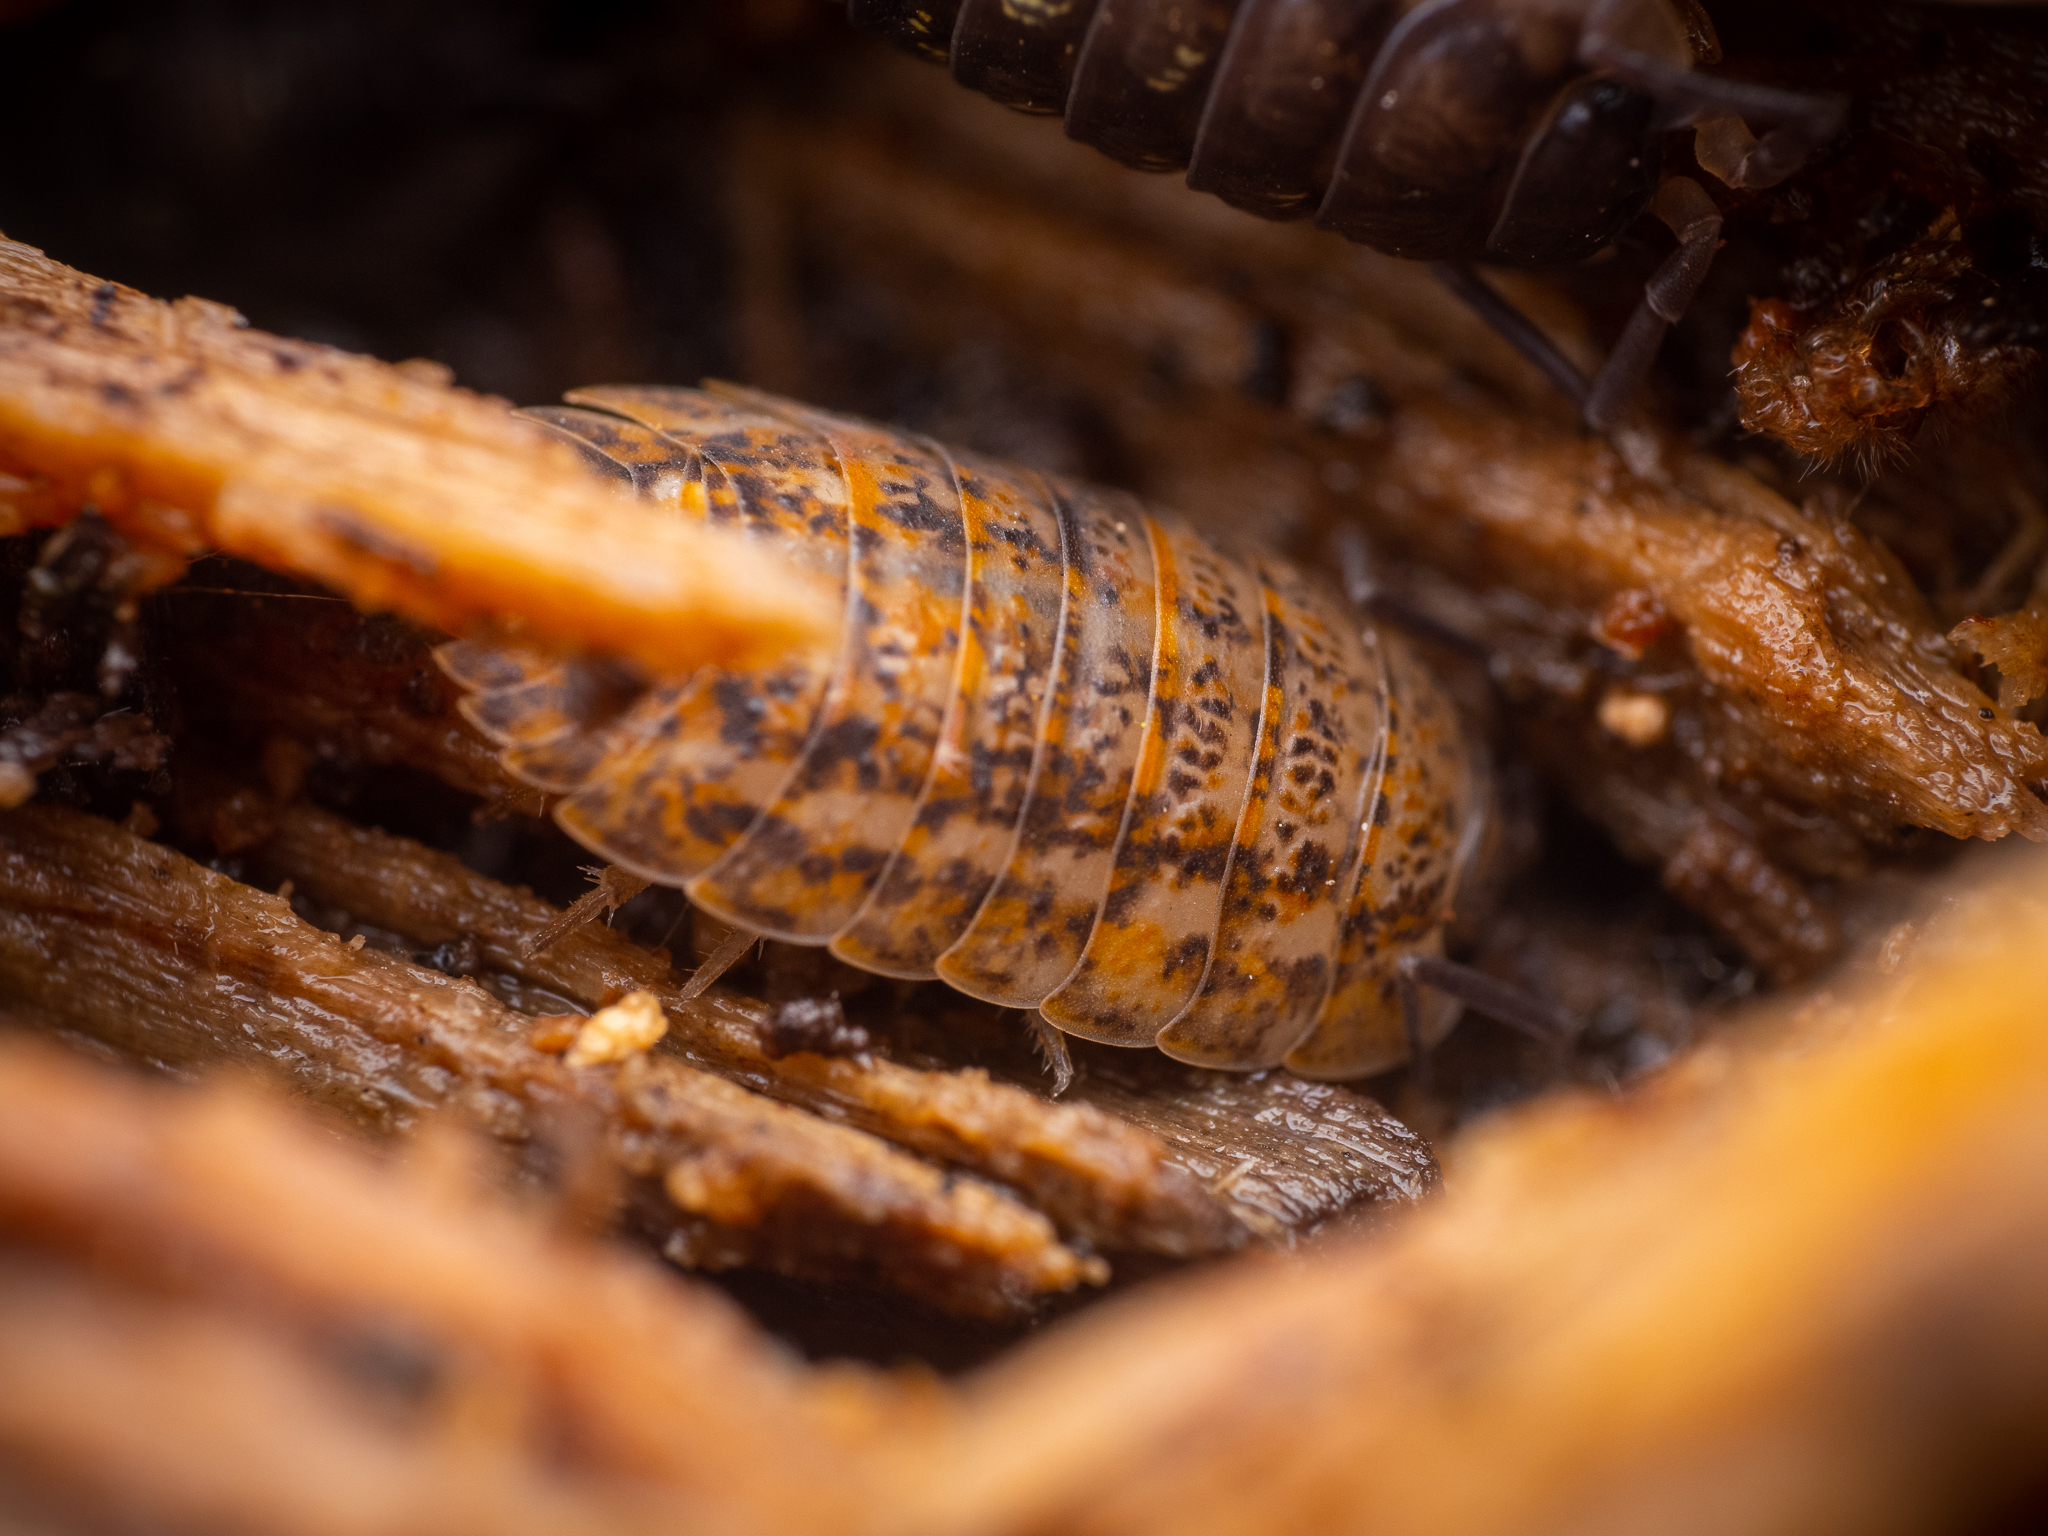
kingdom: Animalia
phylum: Arthropoda
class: Malacostraca
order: Isopoda
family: Trachelipodidae
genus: Trachelipus
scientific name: Trachelipus rathkii
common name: Isopod
